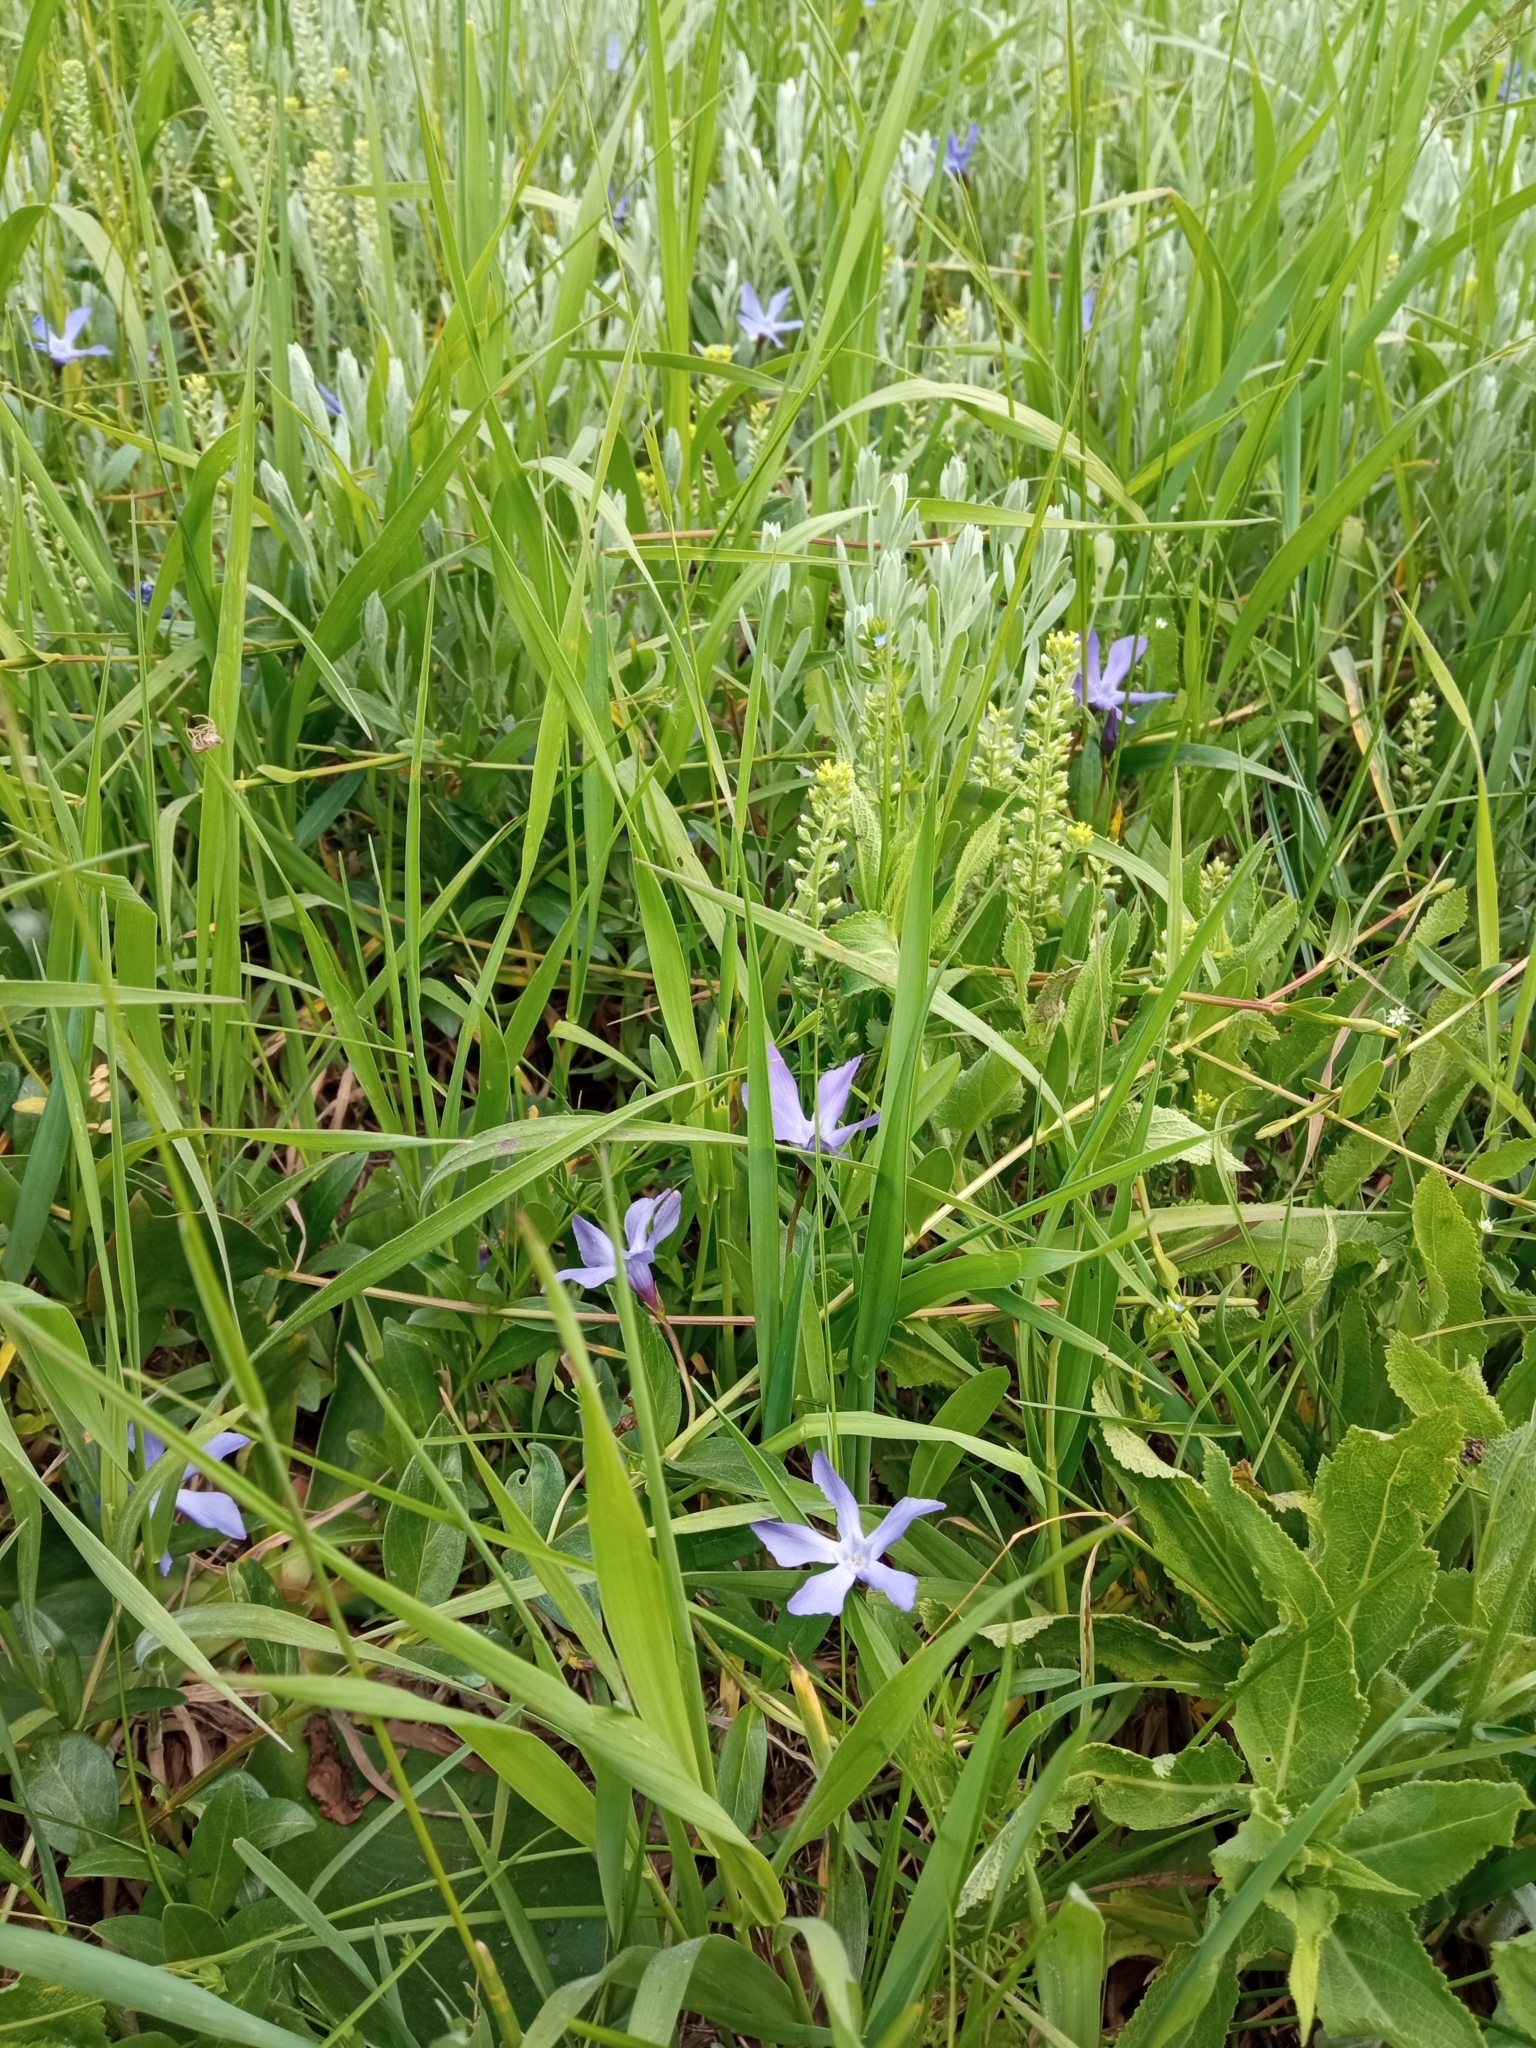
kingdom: Plantae
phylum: Tracheophyta
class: Magnoliopsida
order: Gentianales
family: Apocynaceae
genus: Vinca
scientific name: Vinca herbacea
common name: Herbaceous periwinkle
